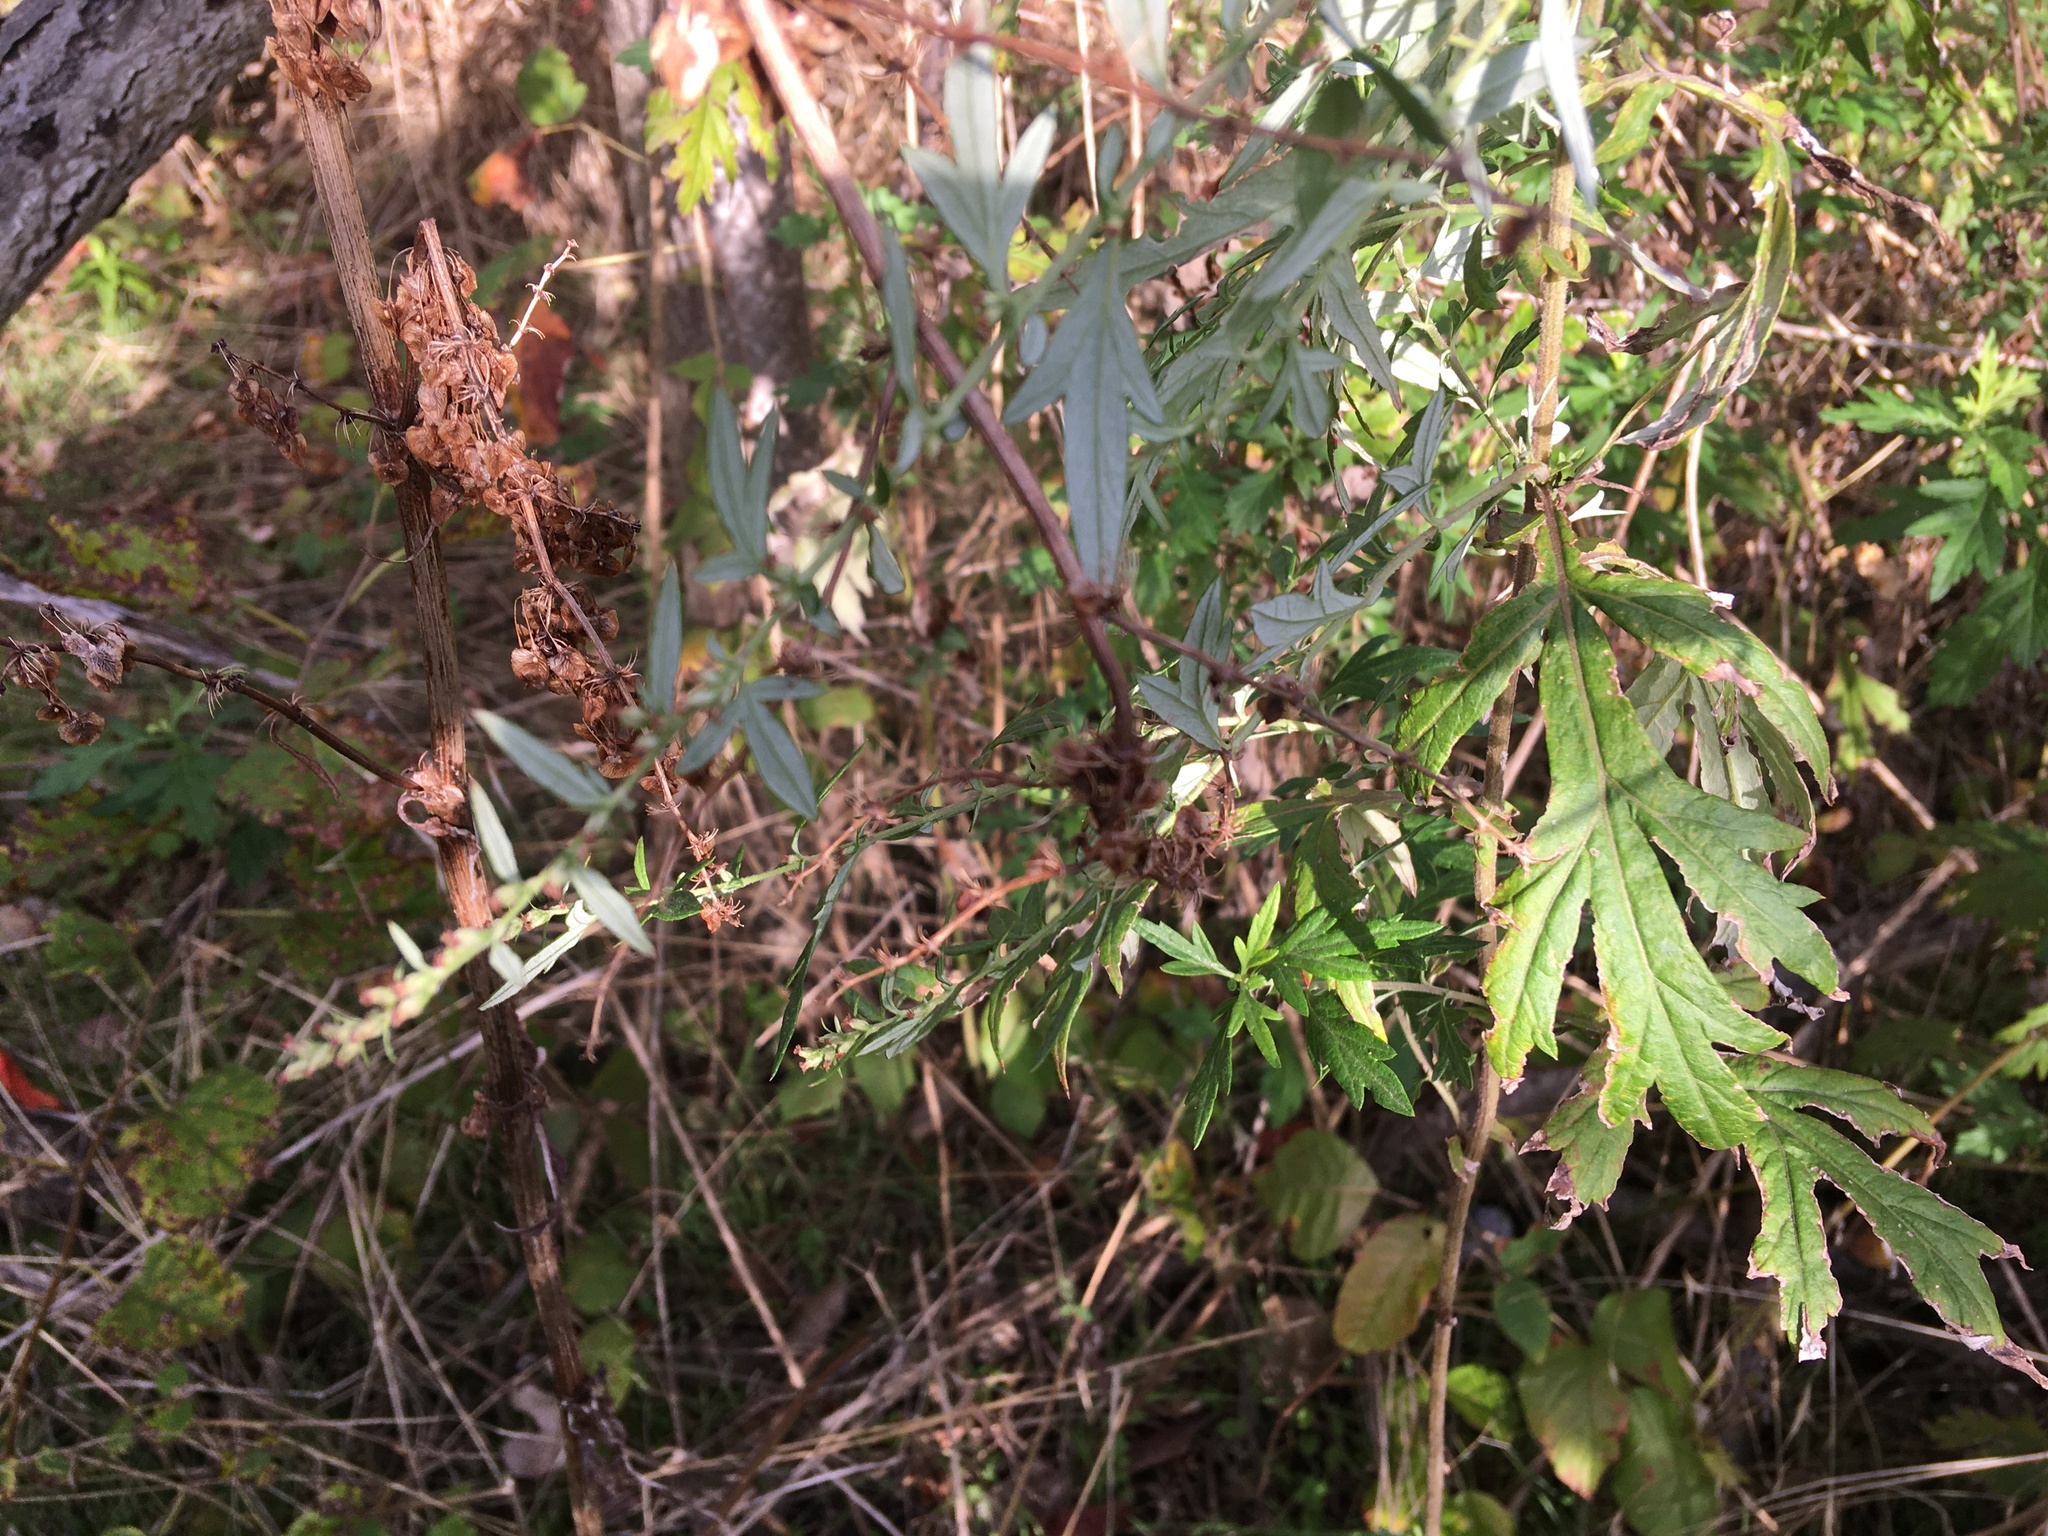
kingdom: Plantae
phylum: Tracheophyta
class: Magnoliopsida
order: Asterales
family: Asteraceae
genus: Artemisia
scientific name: Artemisia vulgaris
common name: Mugwort
